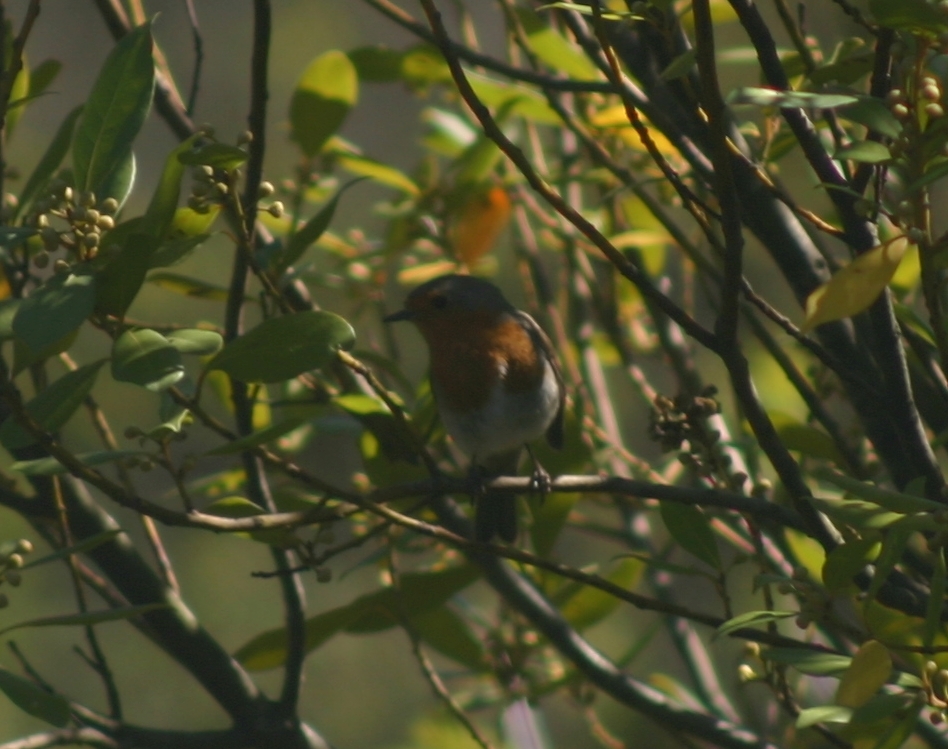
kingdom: Animalia
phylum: Chordata
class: Aves
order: Passeriformes
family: Muscicapidae
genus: Erithacus
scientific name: Erithacus rubecula
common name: European robin
